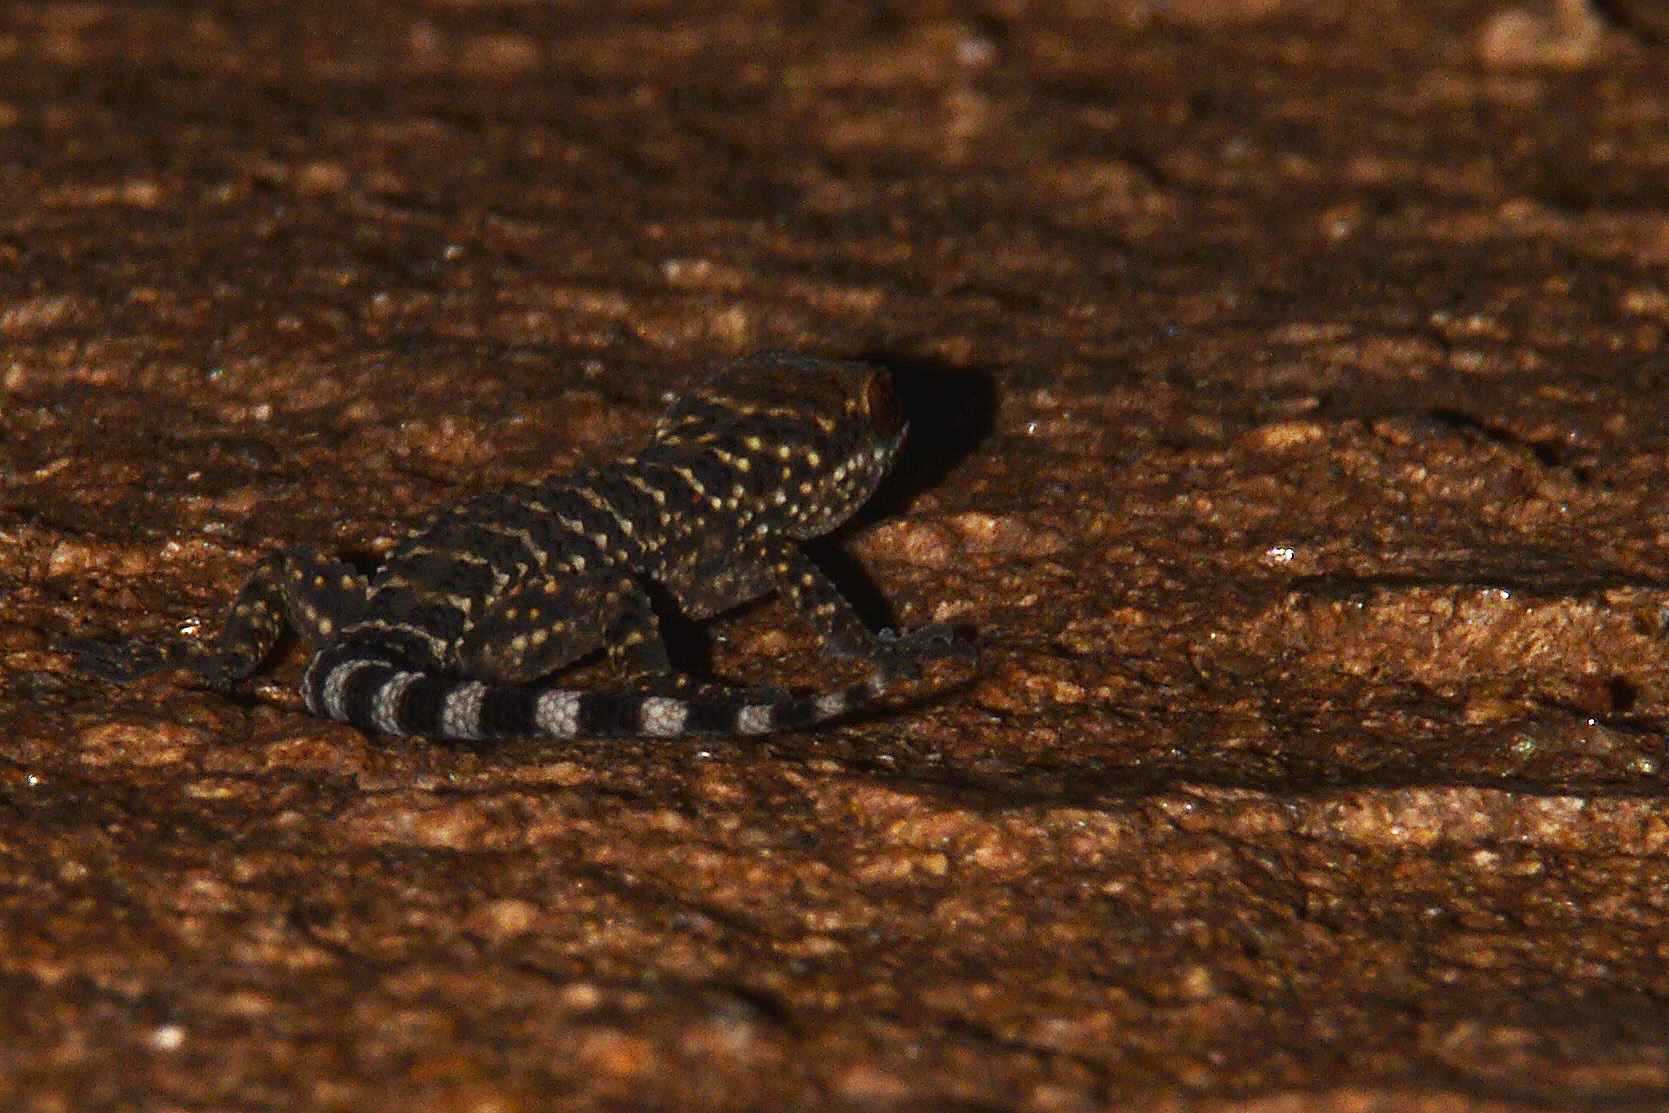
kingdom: Animalia
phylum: Chordata
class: Squamata
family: Phyllodactylidae
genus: Homonota
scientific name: Homonota horrida
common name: South american marked gecko
